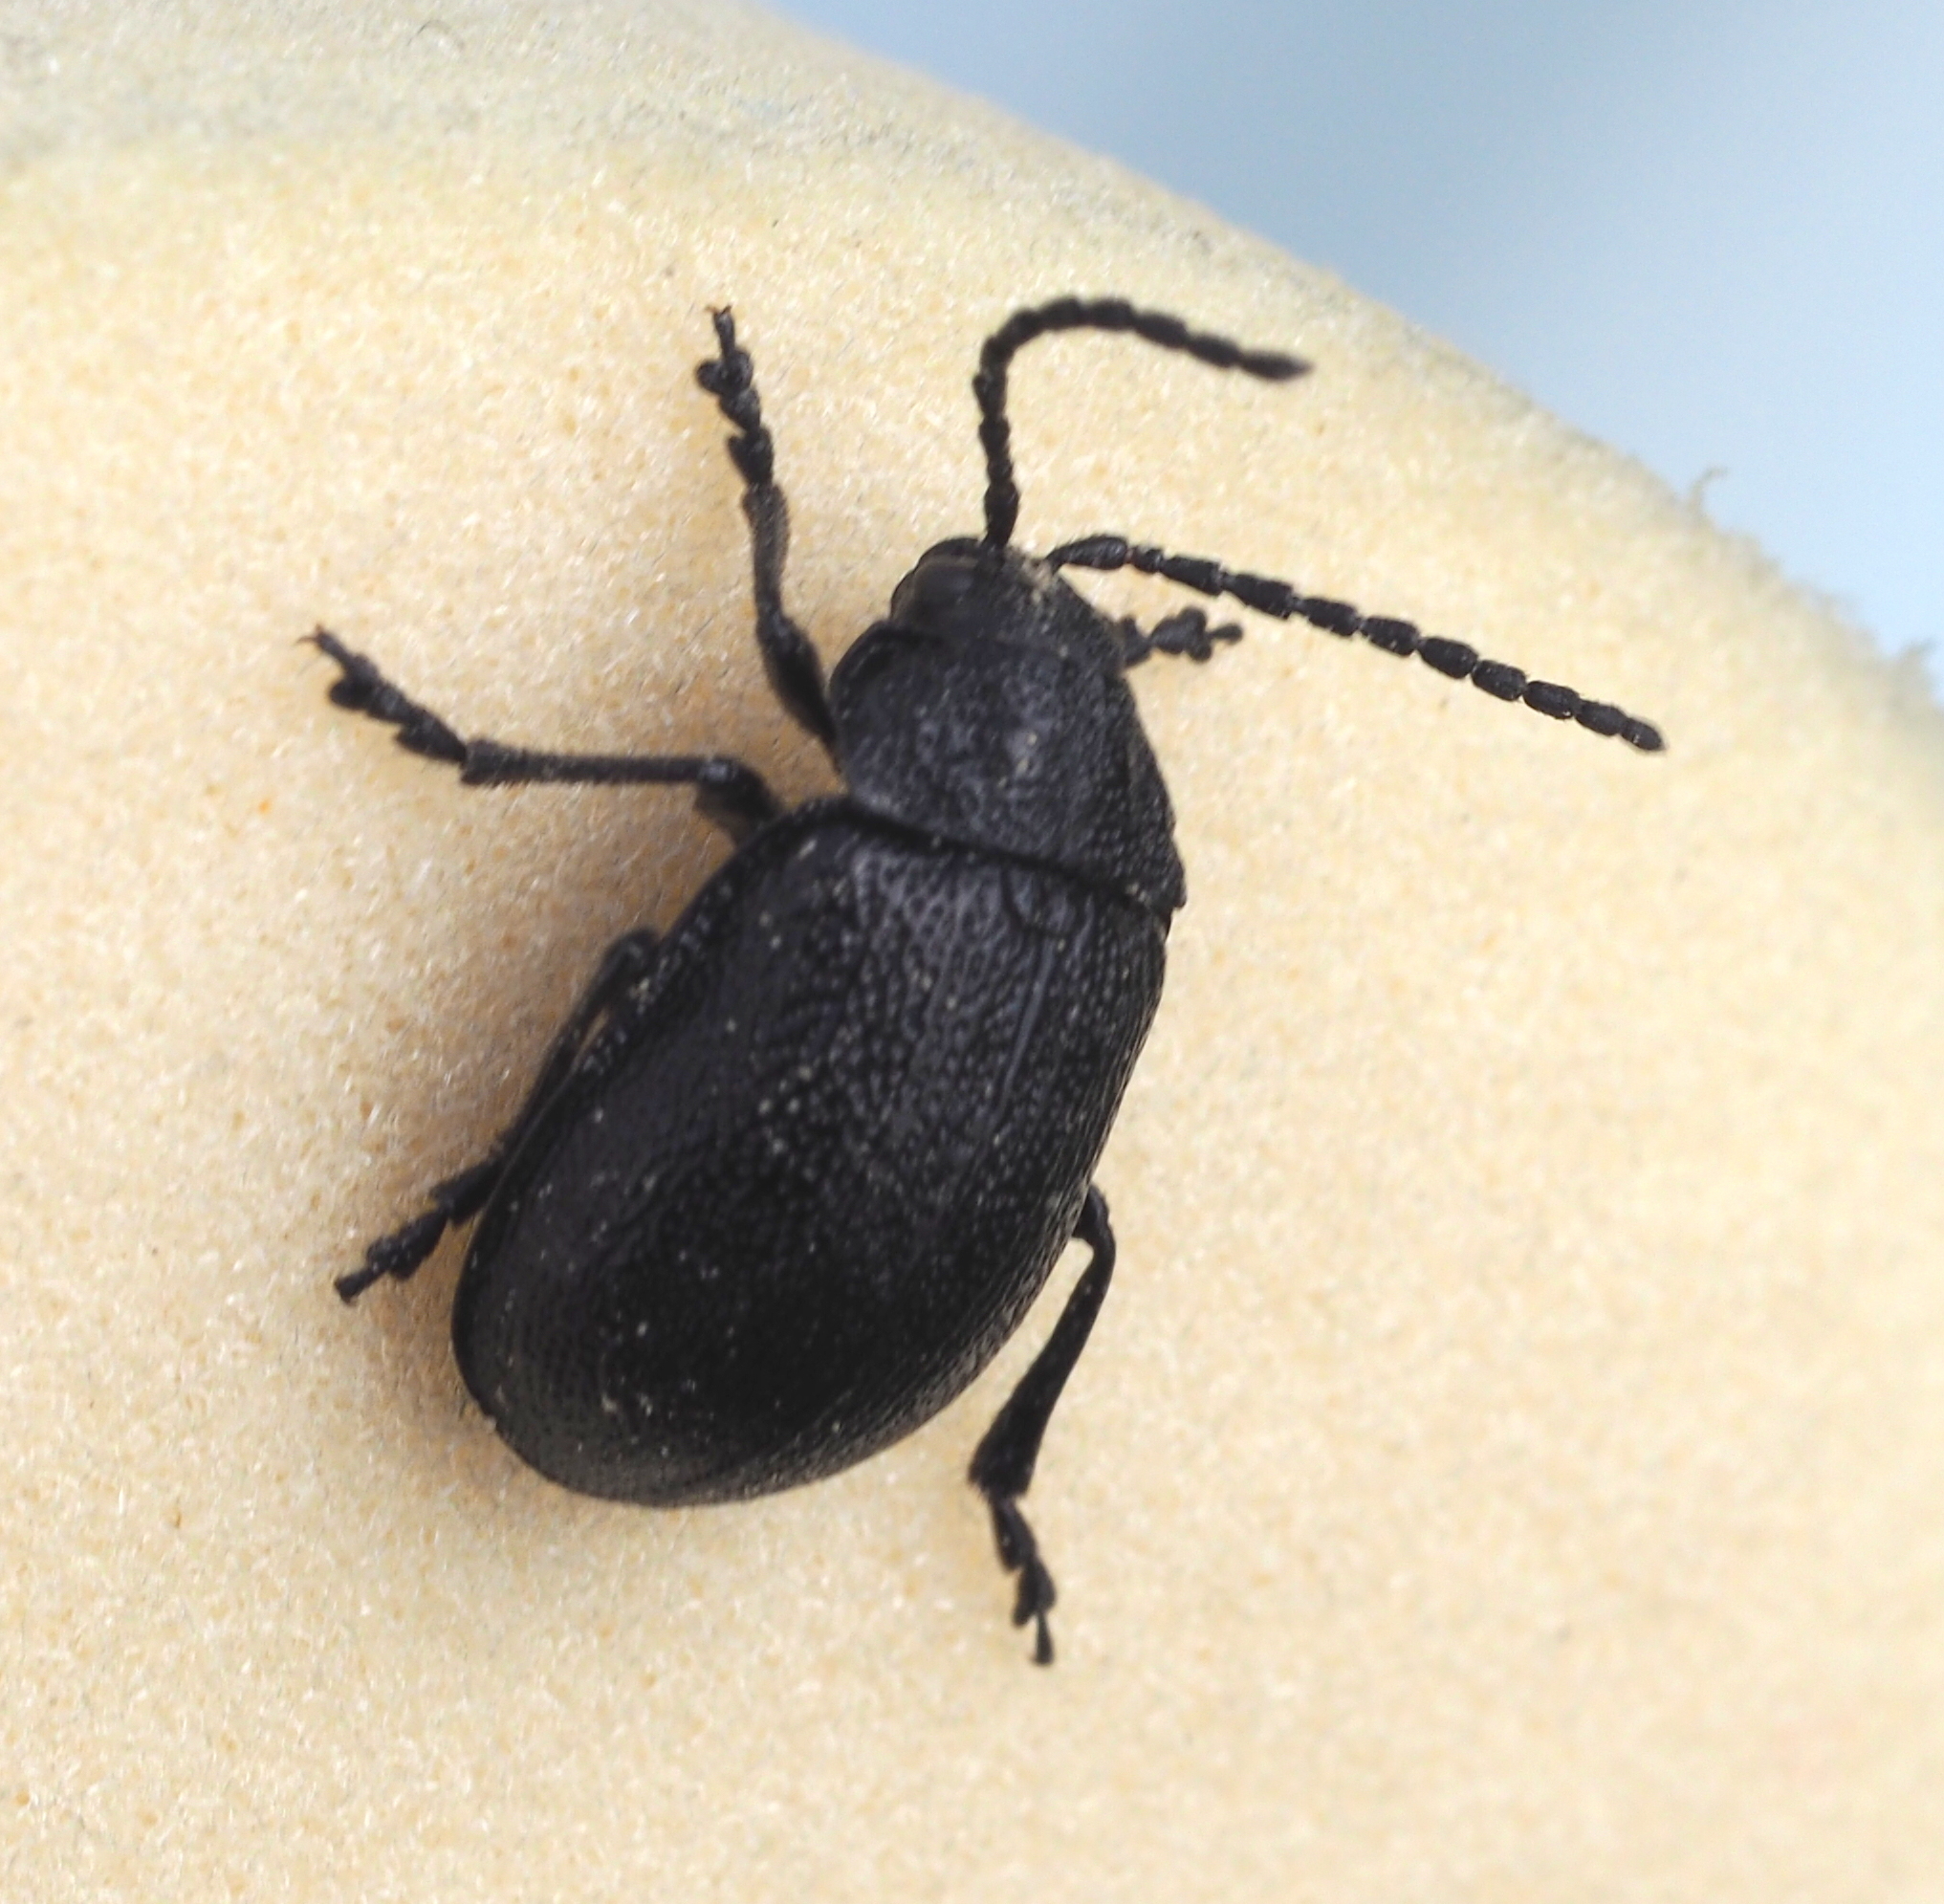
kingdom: Animalia
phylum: Arthropoda
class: Insecta
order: Coleoptera
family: Chrysomelidae
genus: Galeruca
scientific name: Galeruca tanaceti
